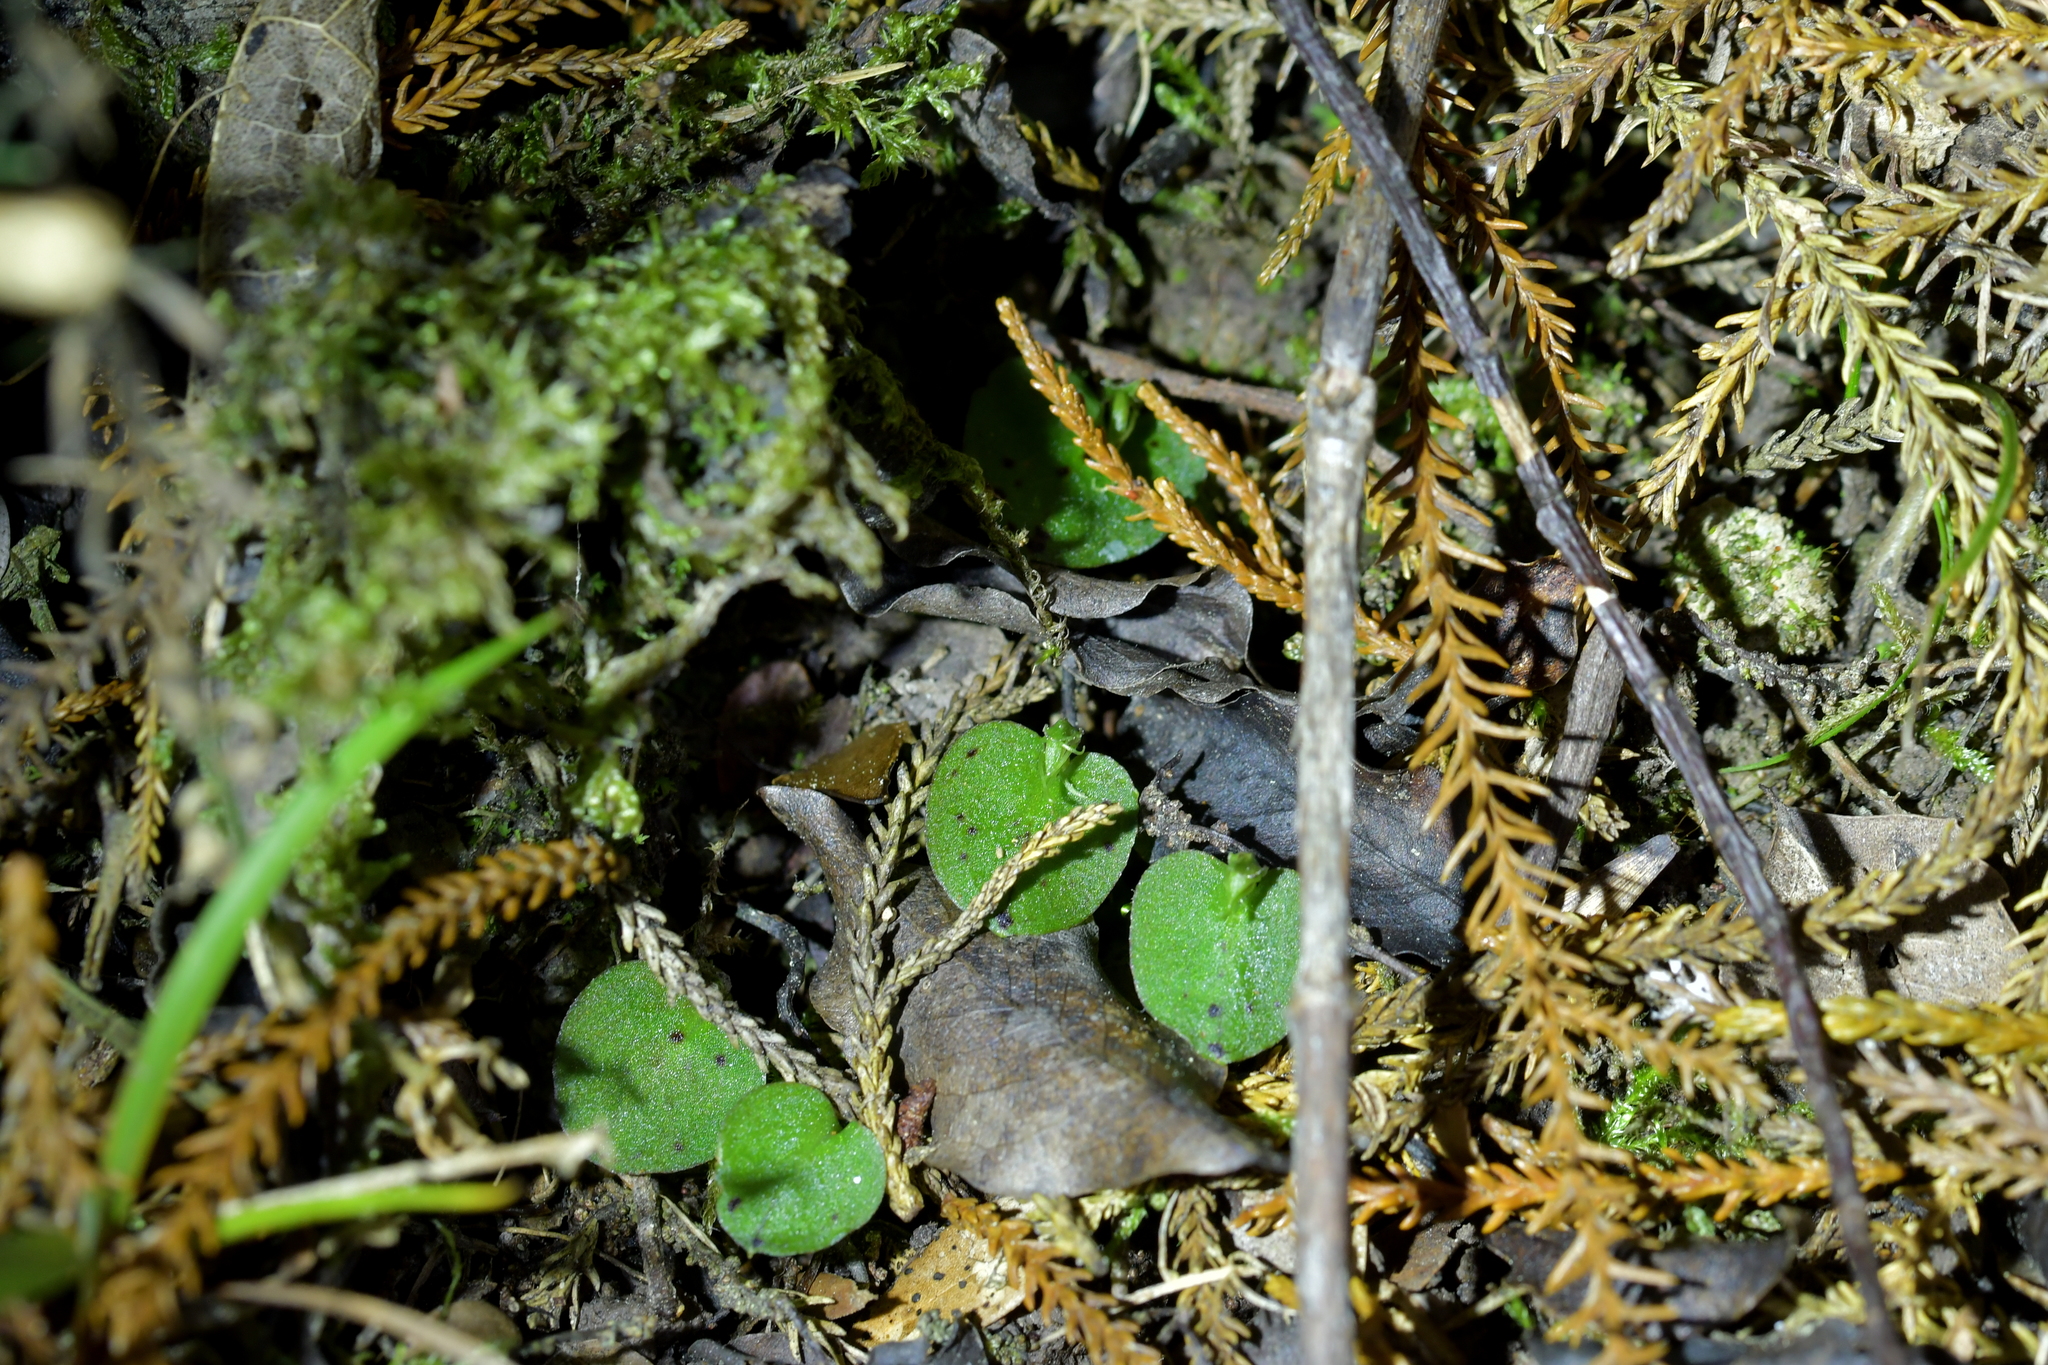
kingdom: Plantae
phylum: Tracheophyta
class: Liliopsida
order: Asparagales
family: Orchidaceae
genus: Corybas
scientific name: Corybas oblongus
